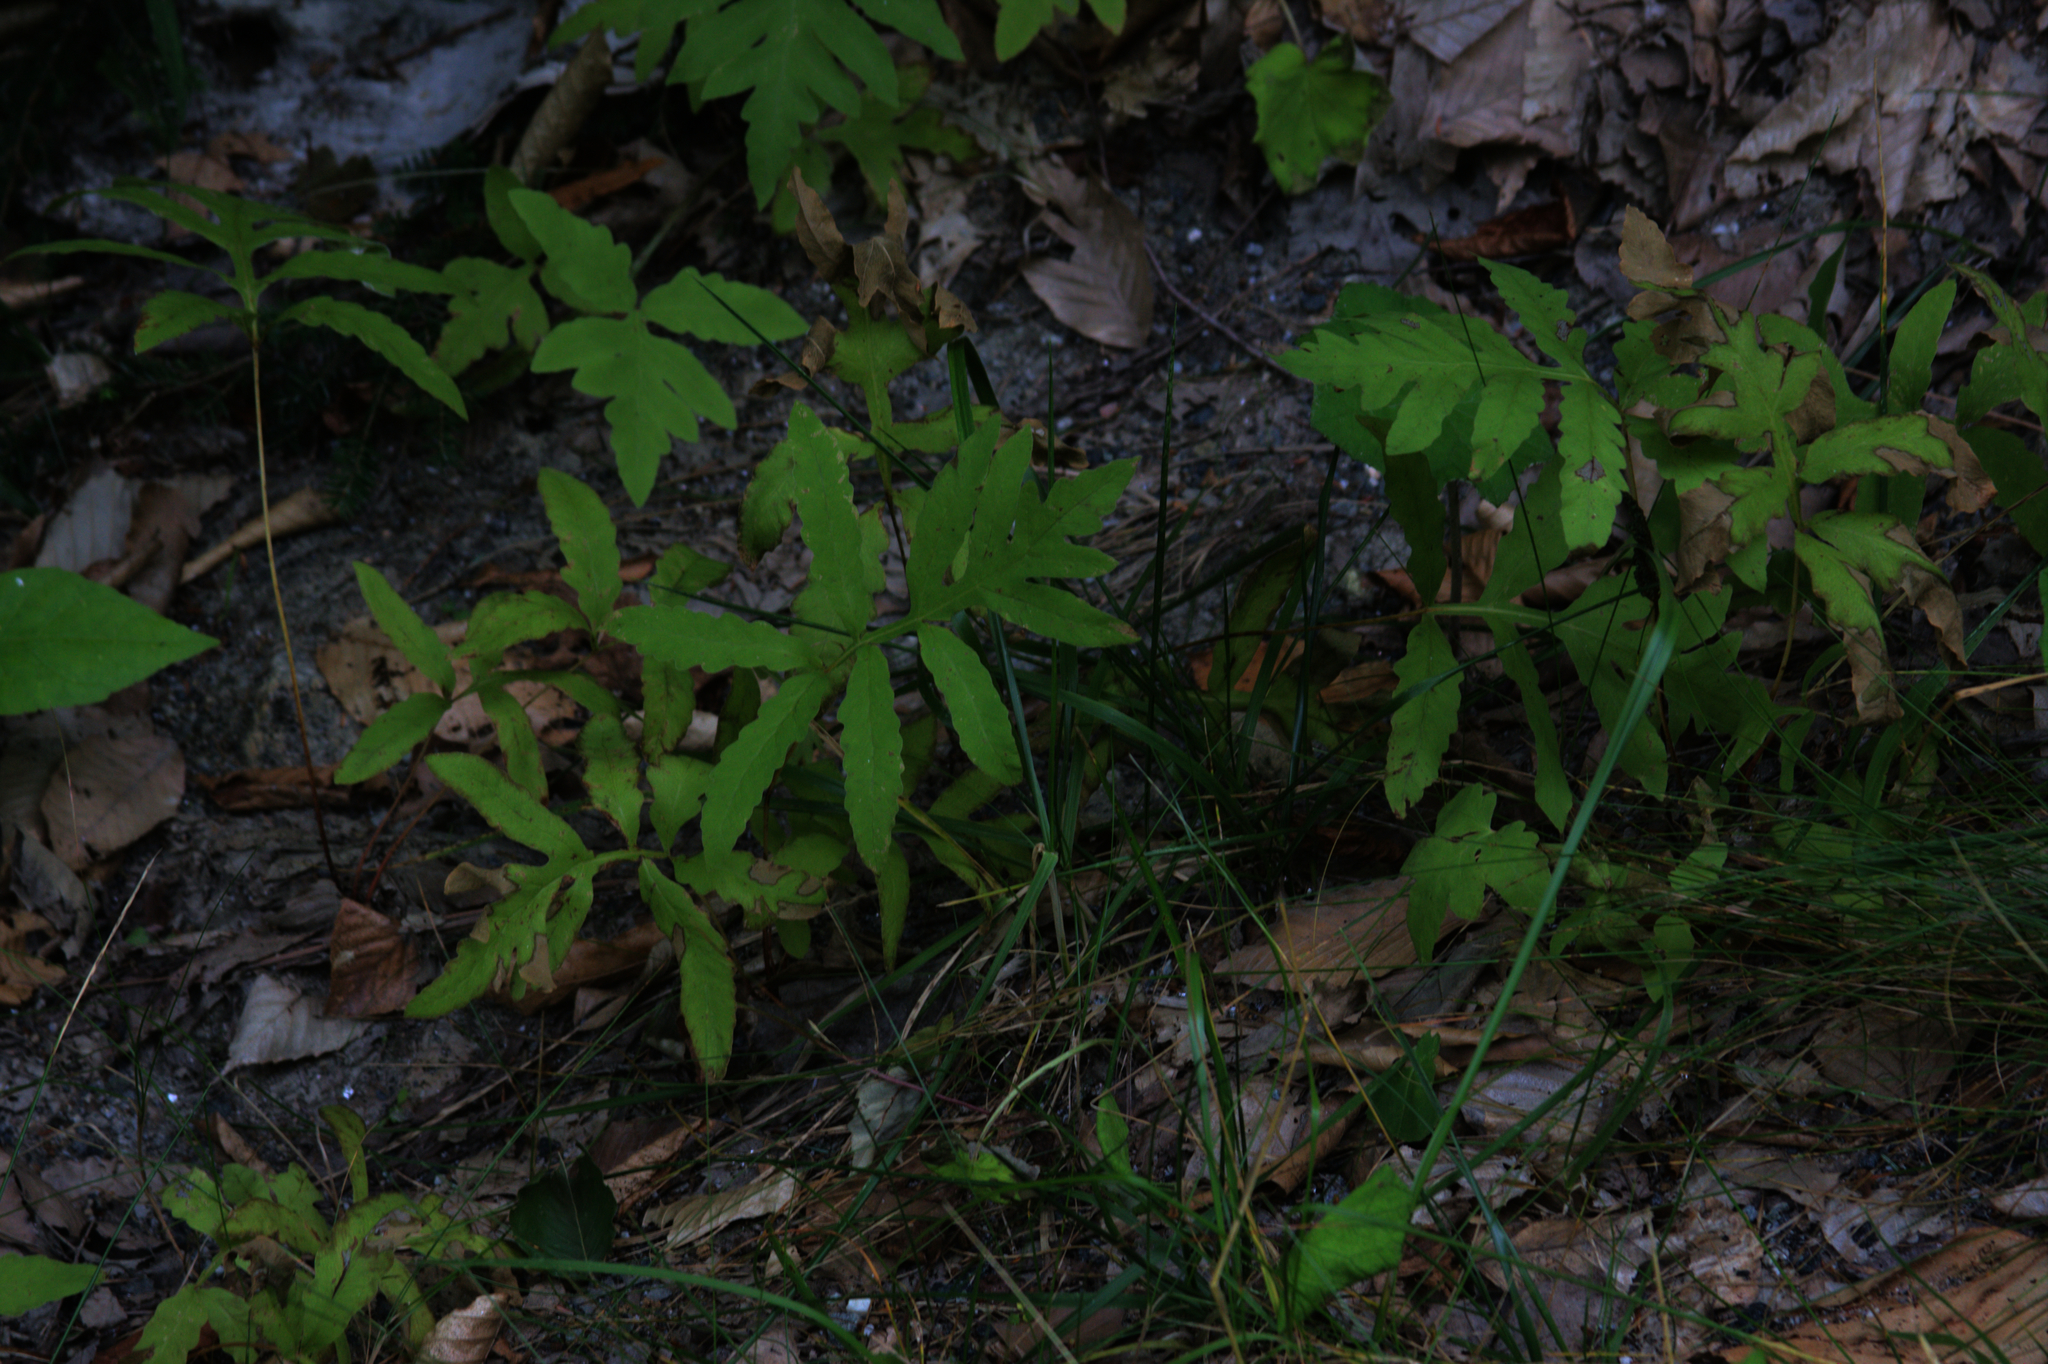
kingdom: Plantae
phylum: Tracheophyta
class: Polypodiopsida
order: Polypodiales
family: Onocleaceae
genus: Onoclea
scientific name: Onoclea sensibilis
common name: Sensitive fern
